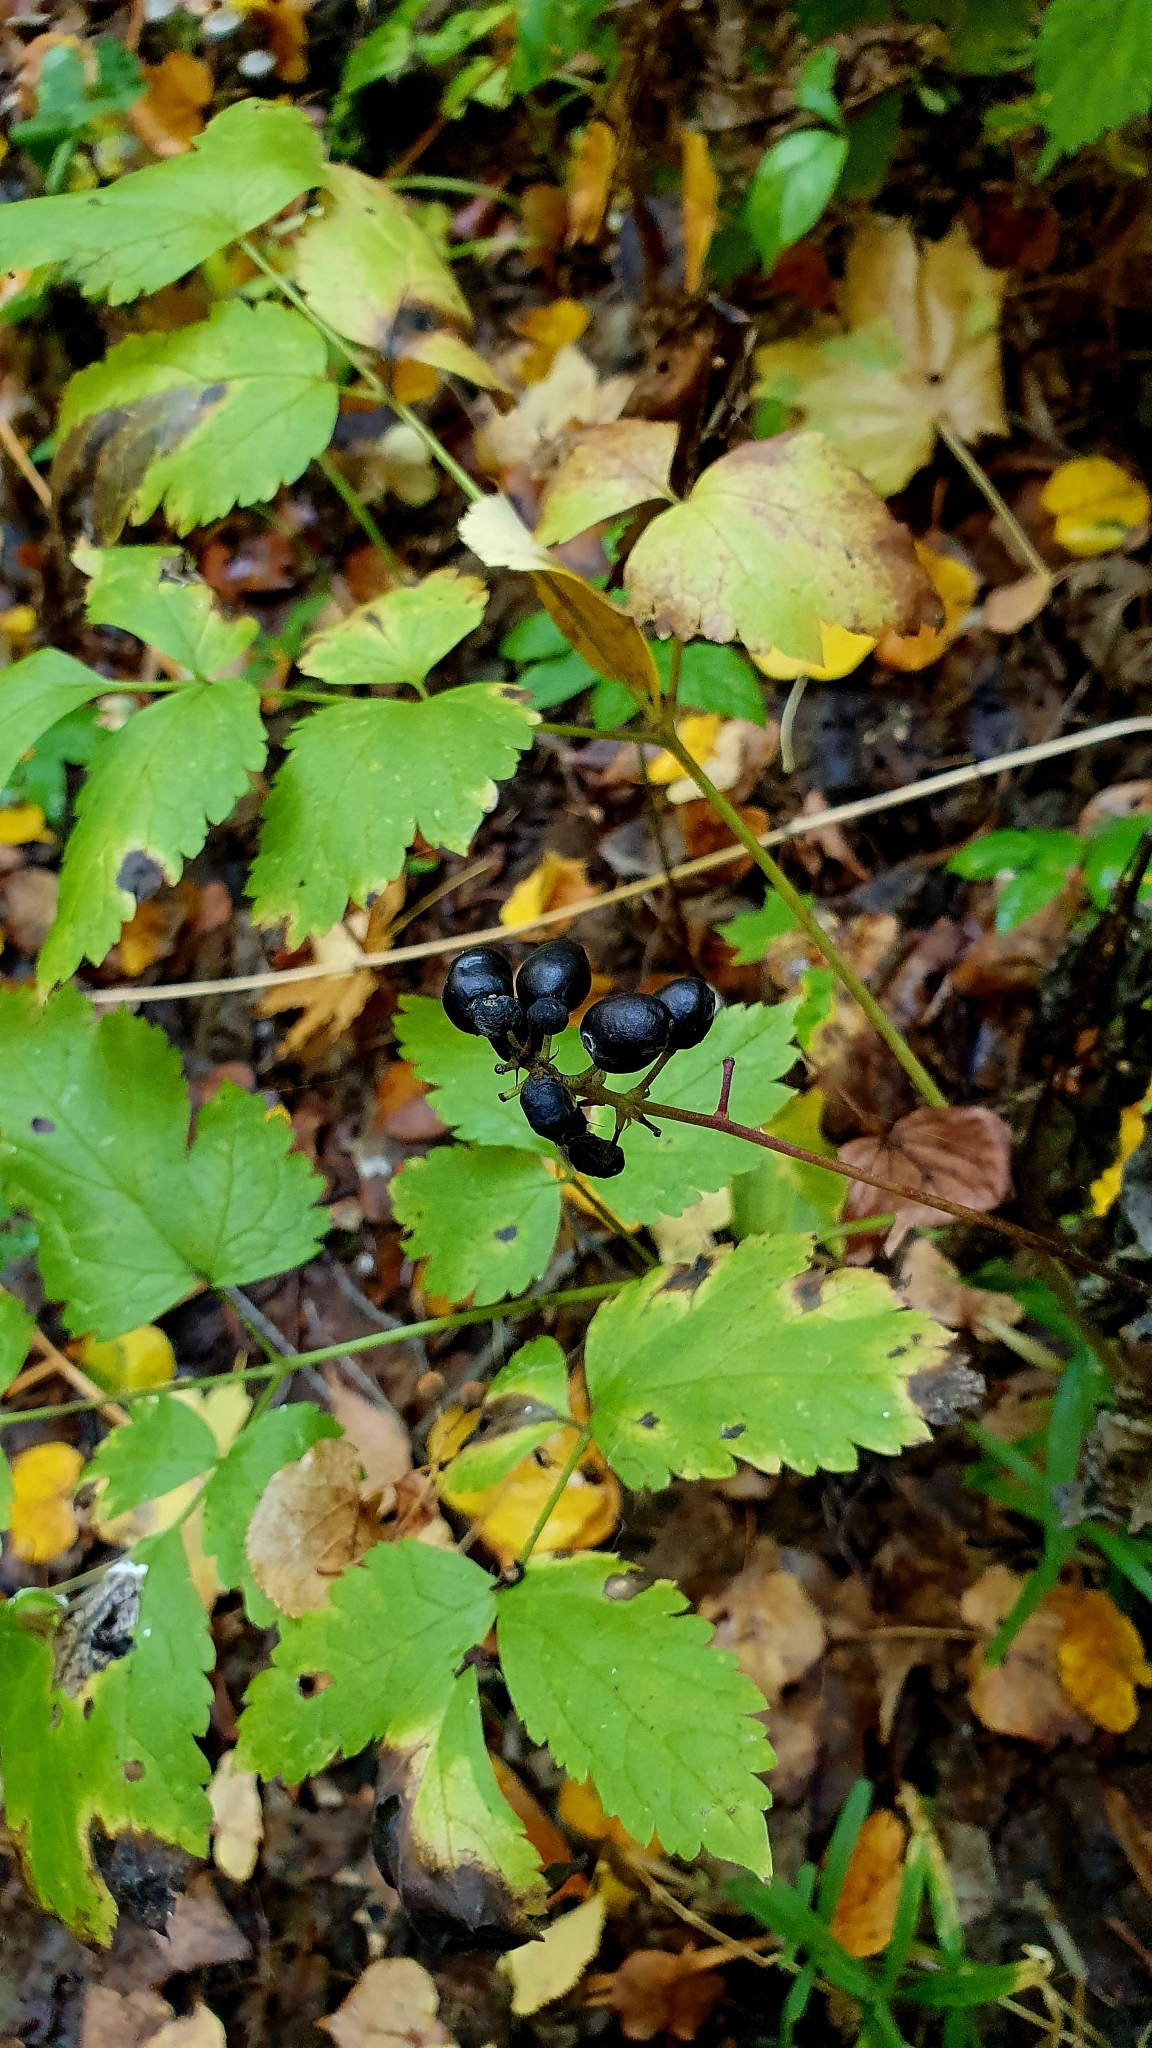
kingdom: Plantae
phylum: Tracheophyta
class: Magnoliopsida
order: Ranunculales
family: Ranunculaceae
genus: Actaea
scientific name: Actaea spicata
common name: Baneberry
